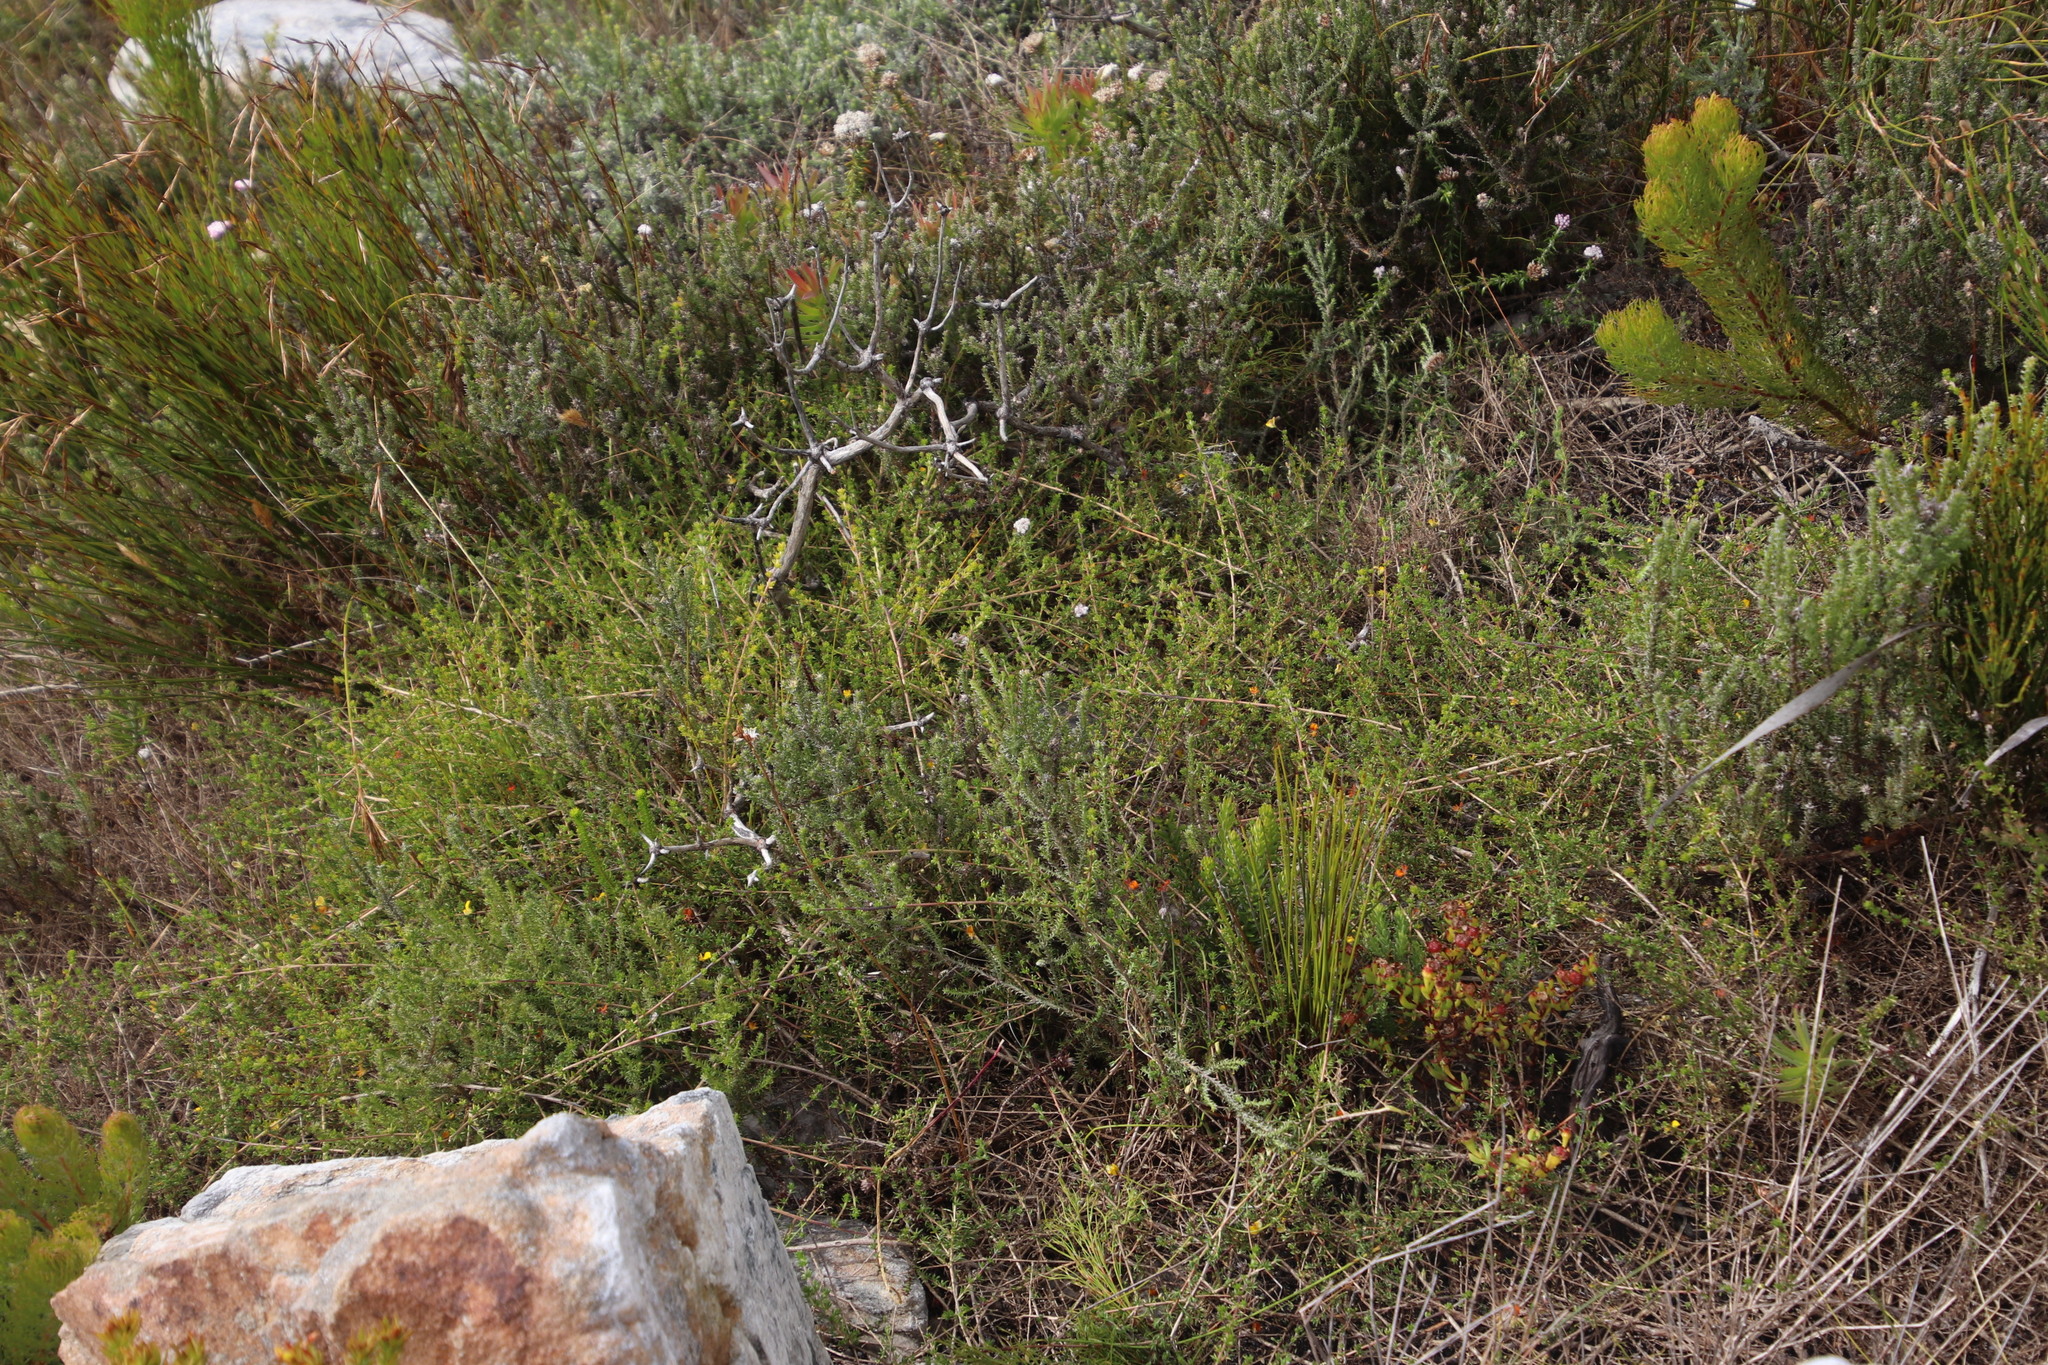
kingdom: Plantae
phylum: Tracheophyta
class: Magnoliopsida
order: Fabales
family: Fabaceae
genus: Aspalathus
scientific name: Aspalathus serpens
